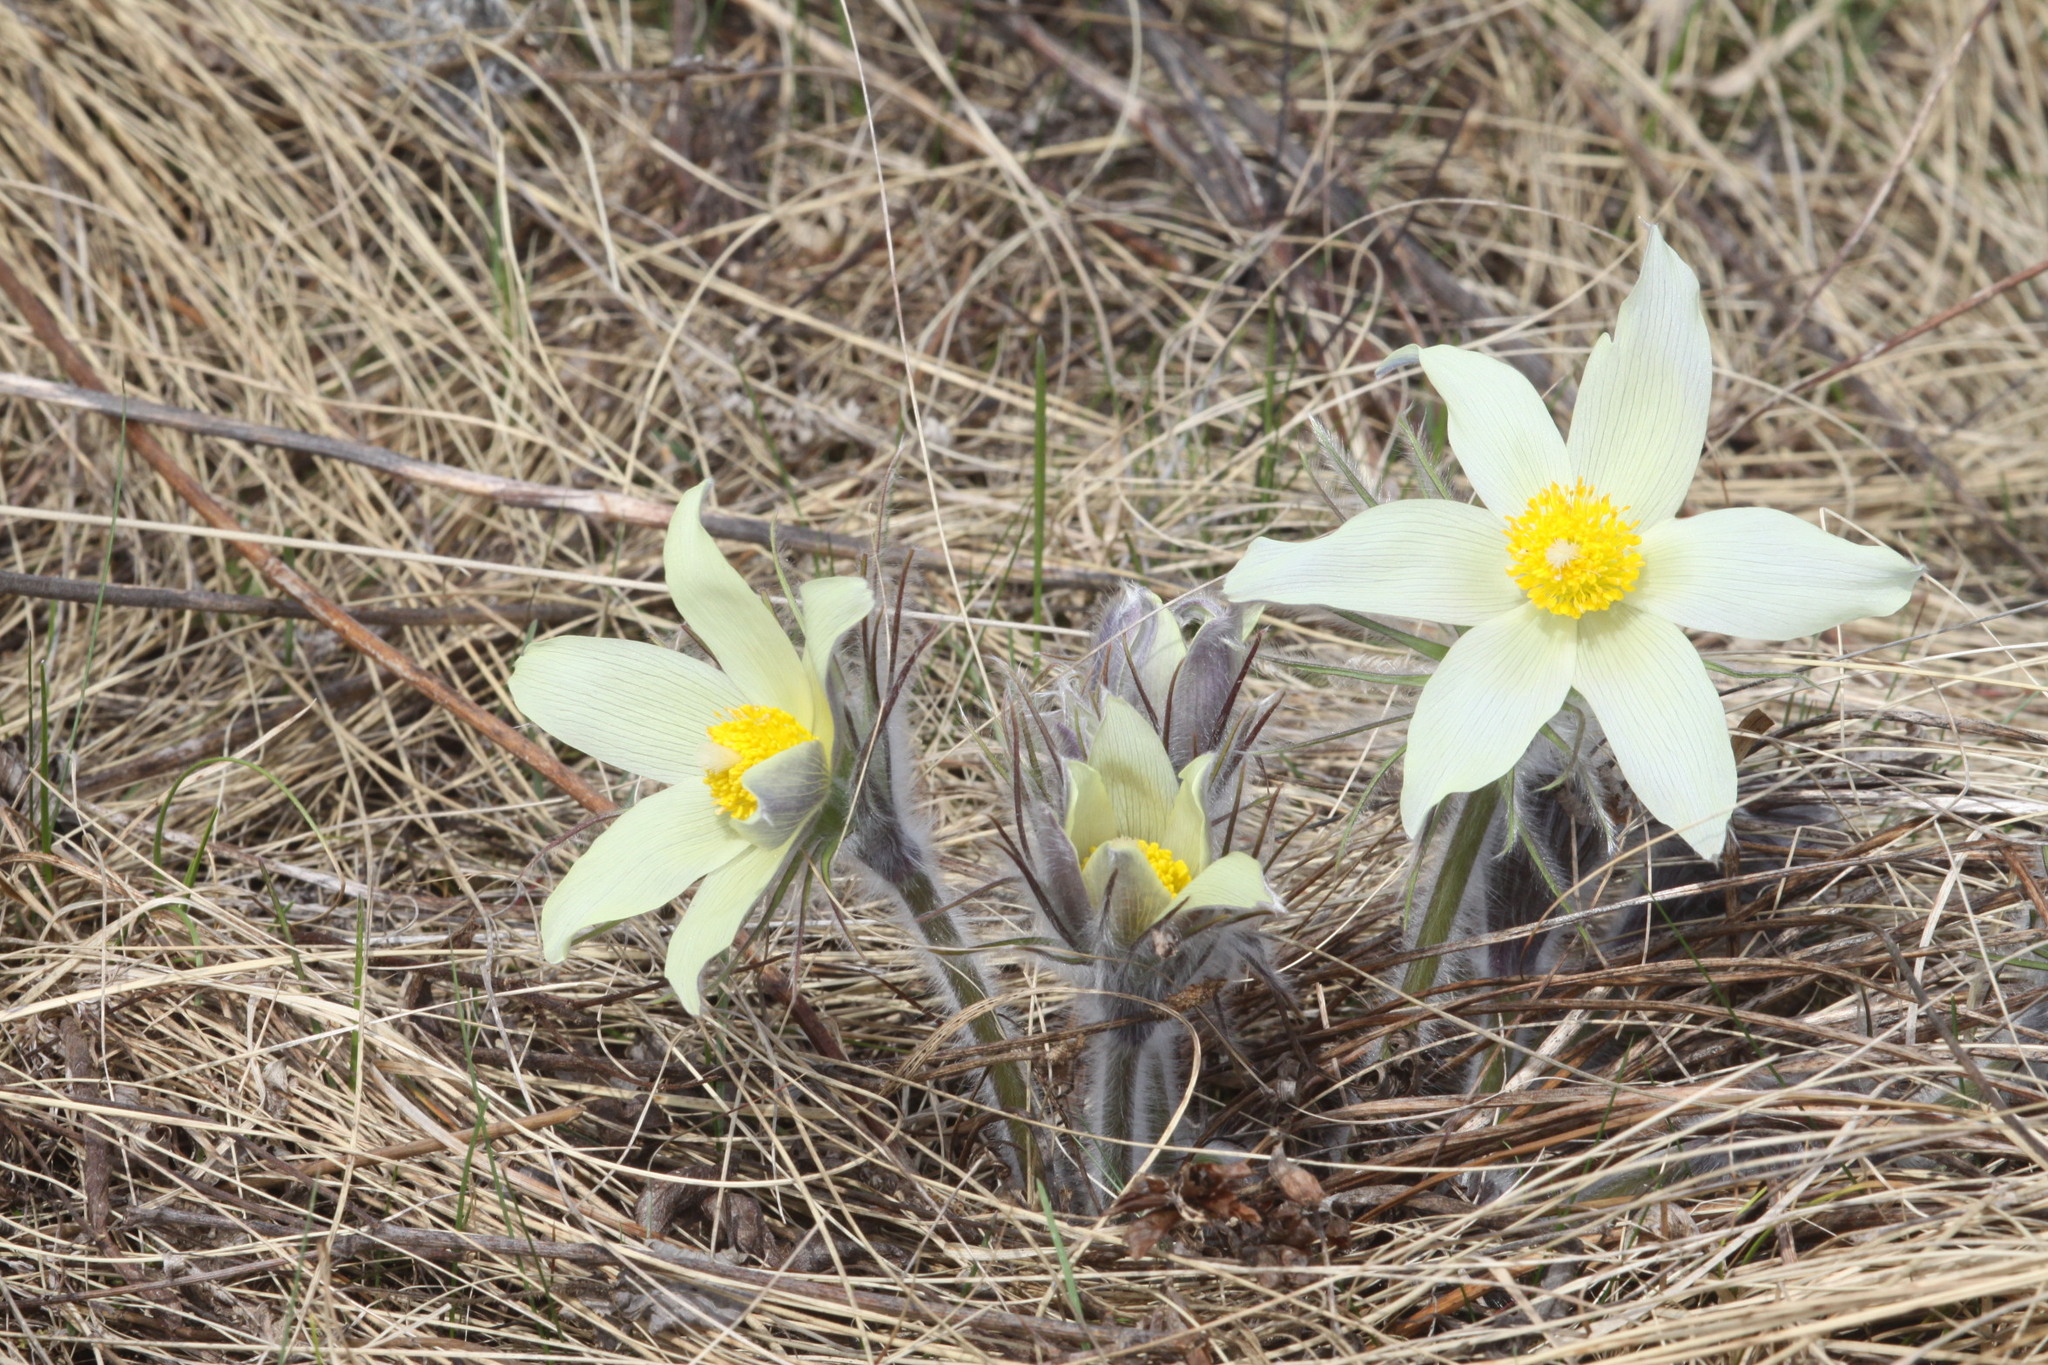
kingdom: Plantae
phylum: Tracheophyta
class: Magnoliopsida
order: Ranunculales
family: Ranunculaceae
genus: Pulsatilla
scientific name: Pulsatilla patens
